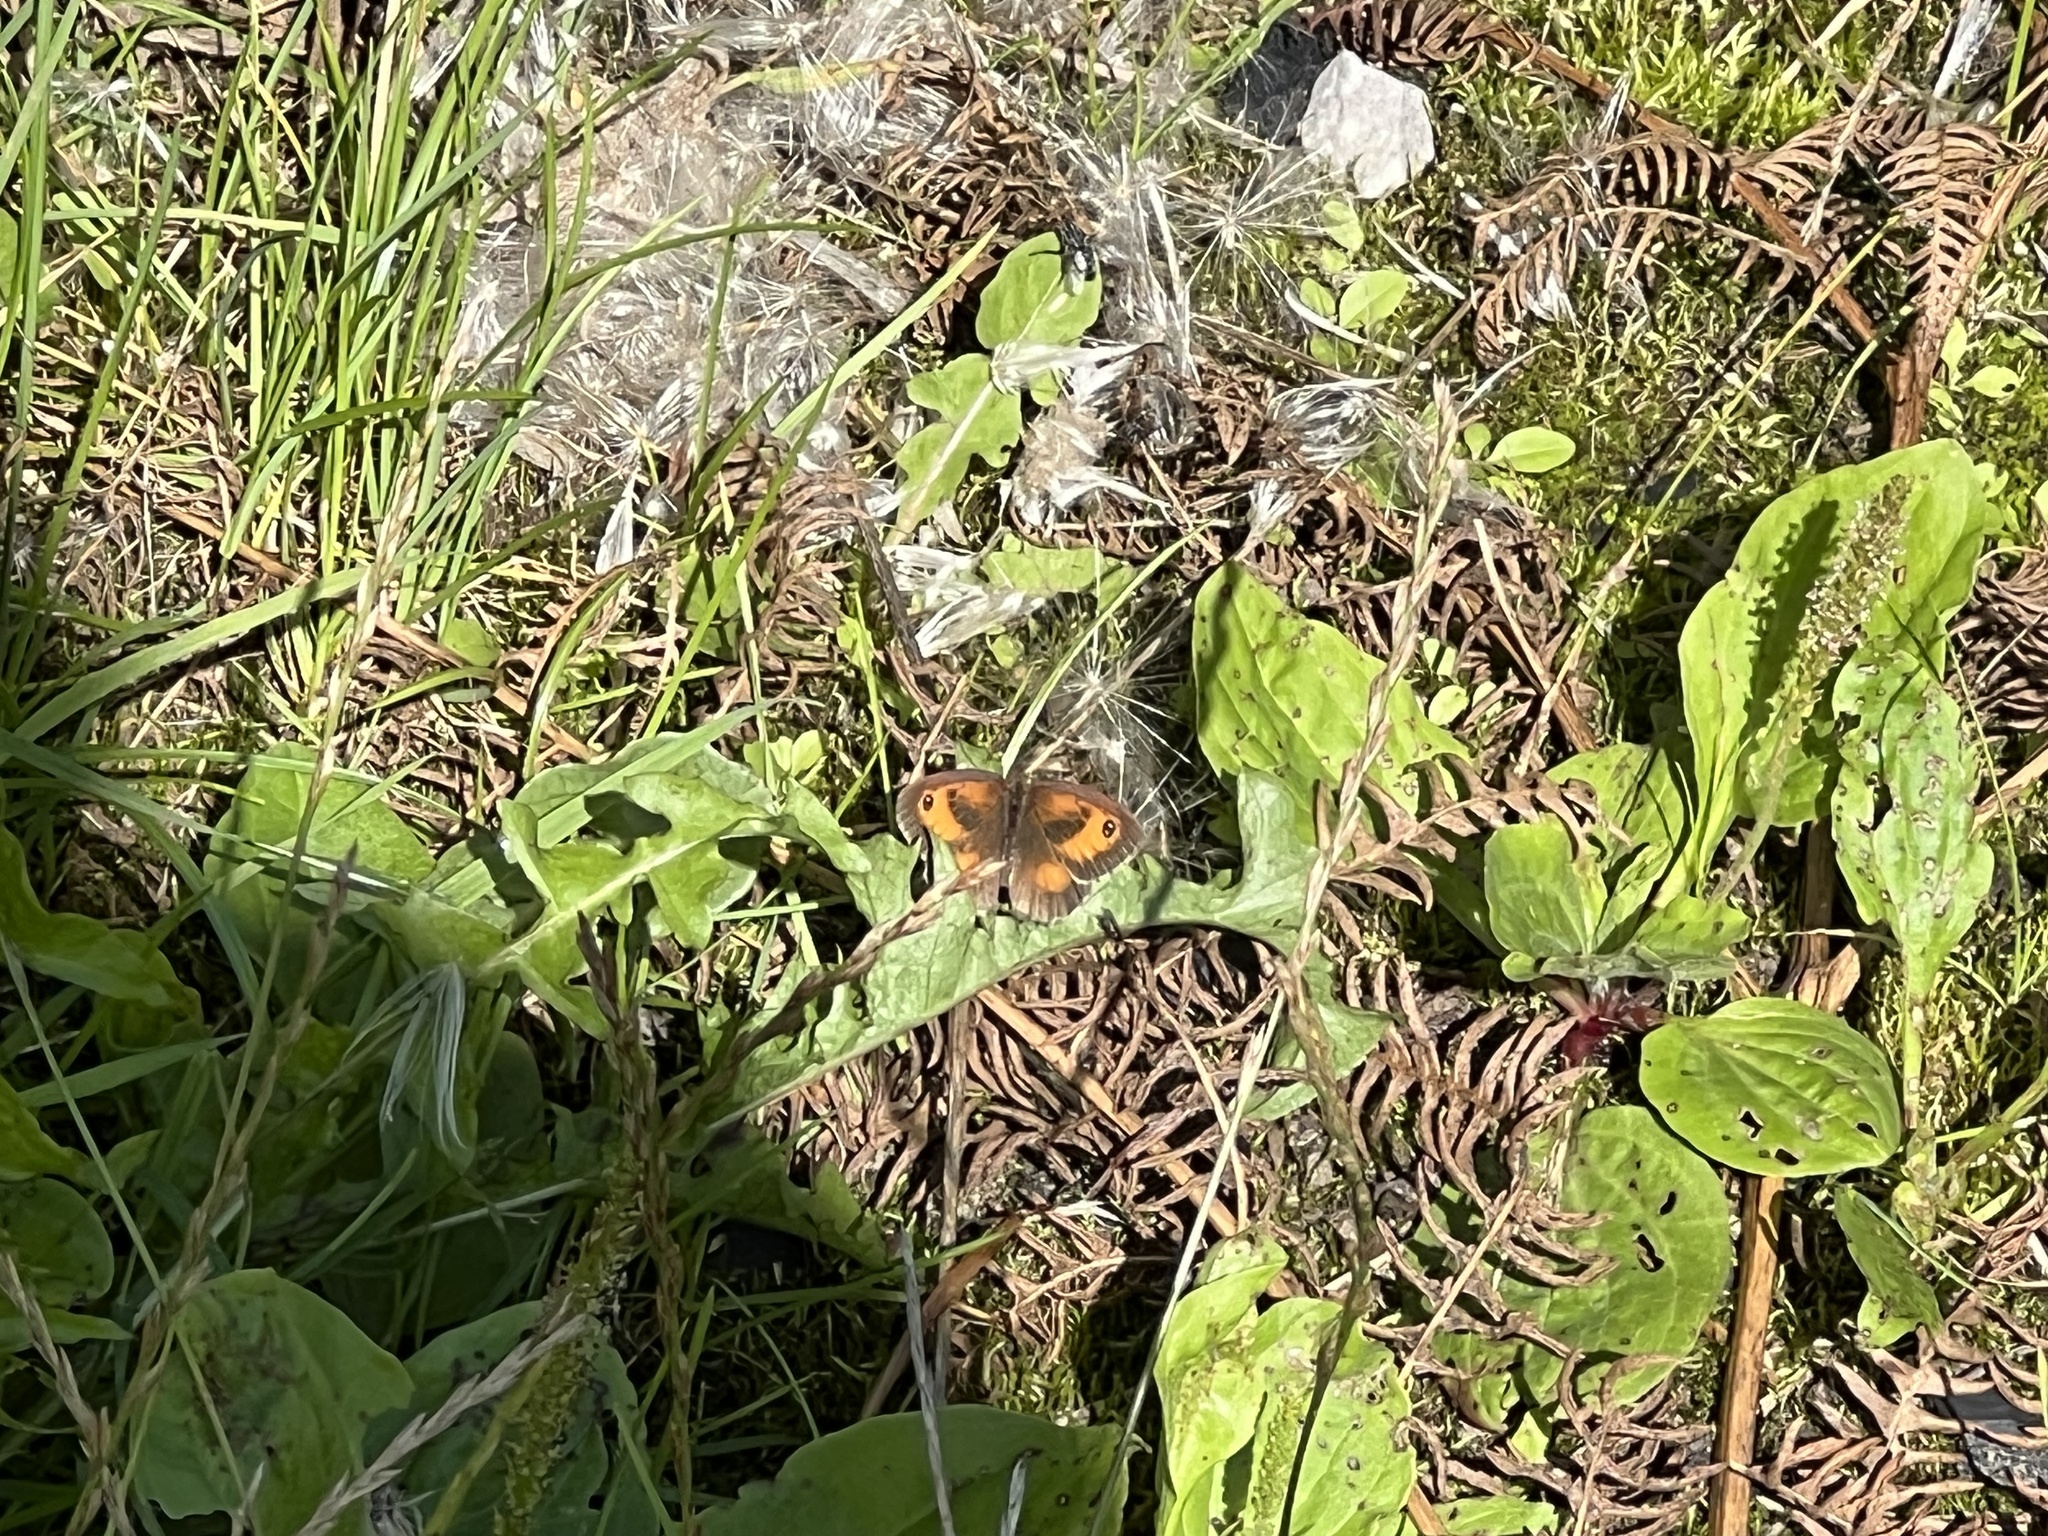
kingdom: Animalia
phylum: Arthropoda
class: Insecta
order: Lepidoptera
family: Nymphalidae
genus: Pyronia
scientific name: Pyronia tithonus
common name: Gatekeeper
